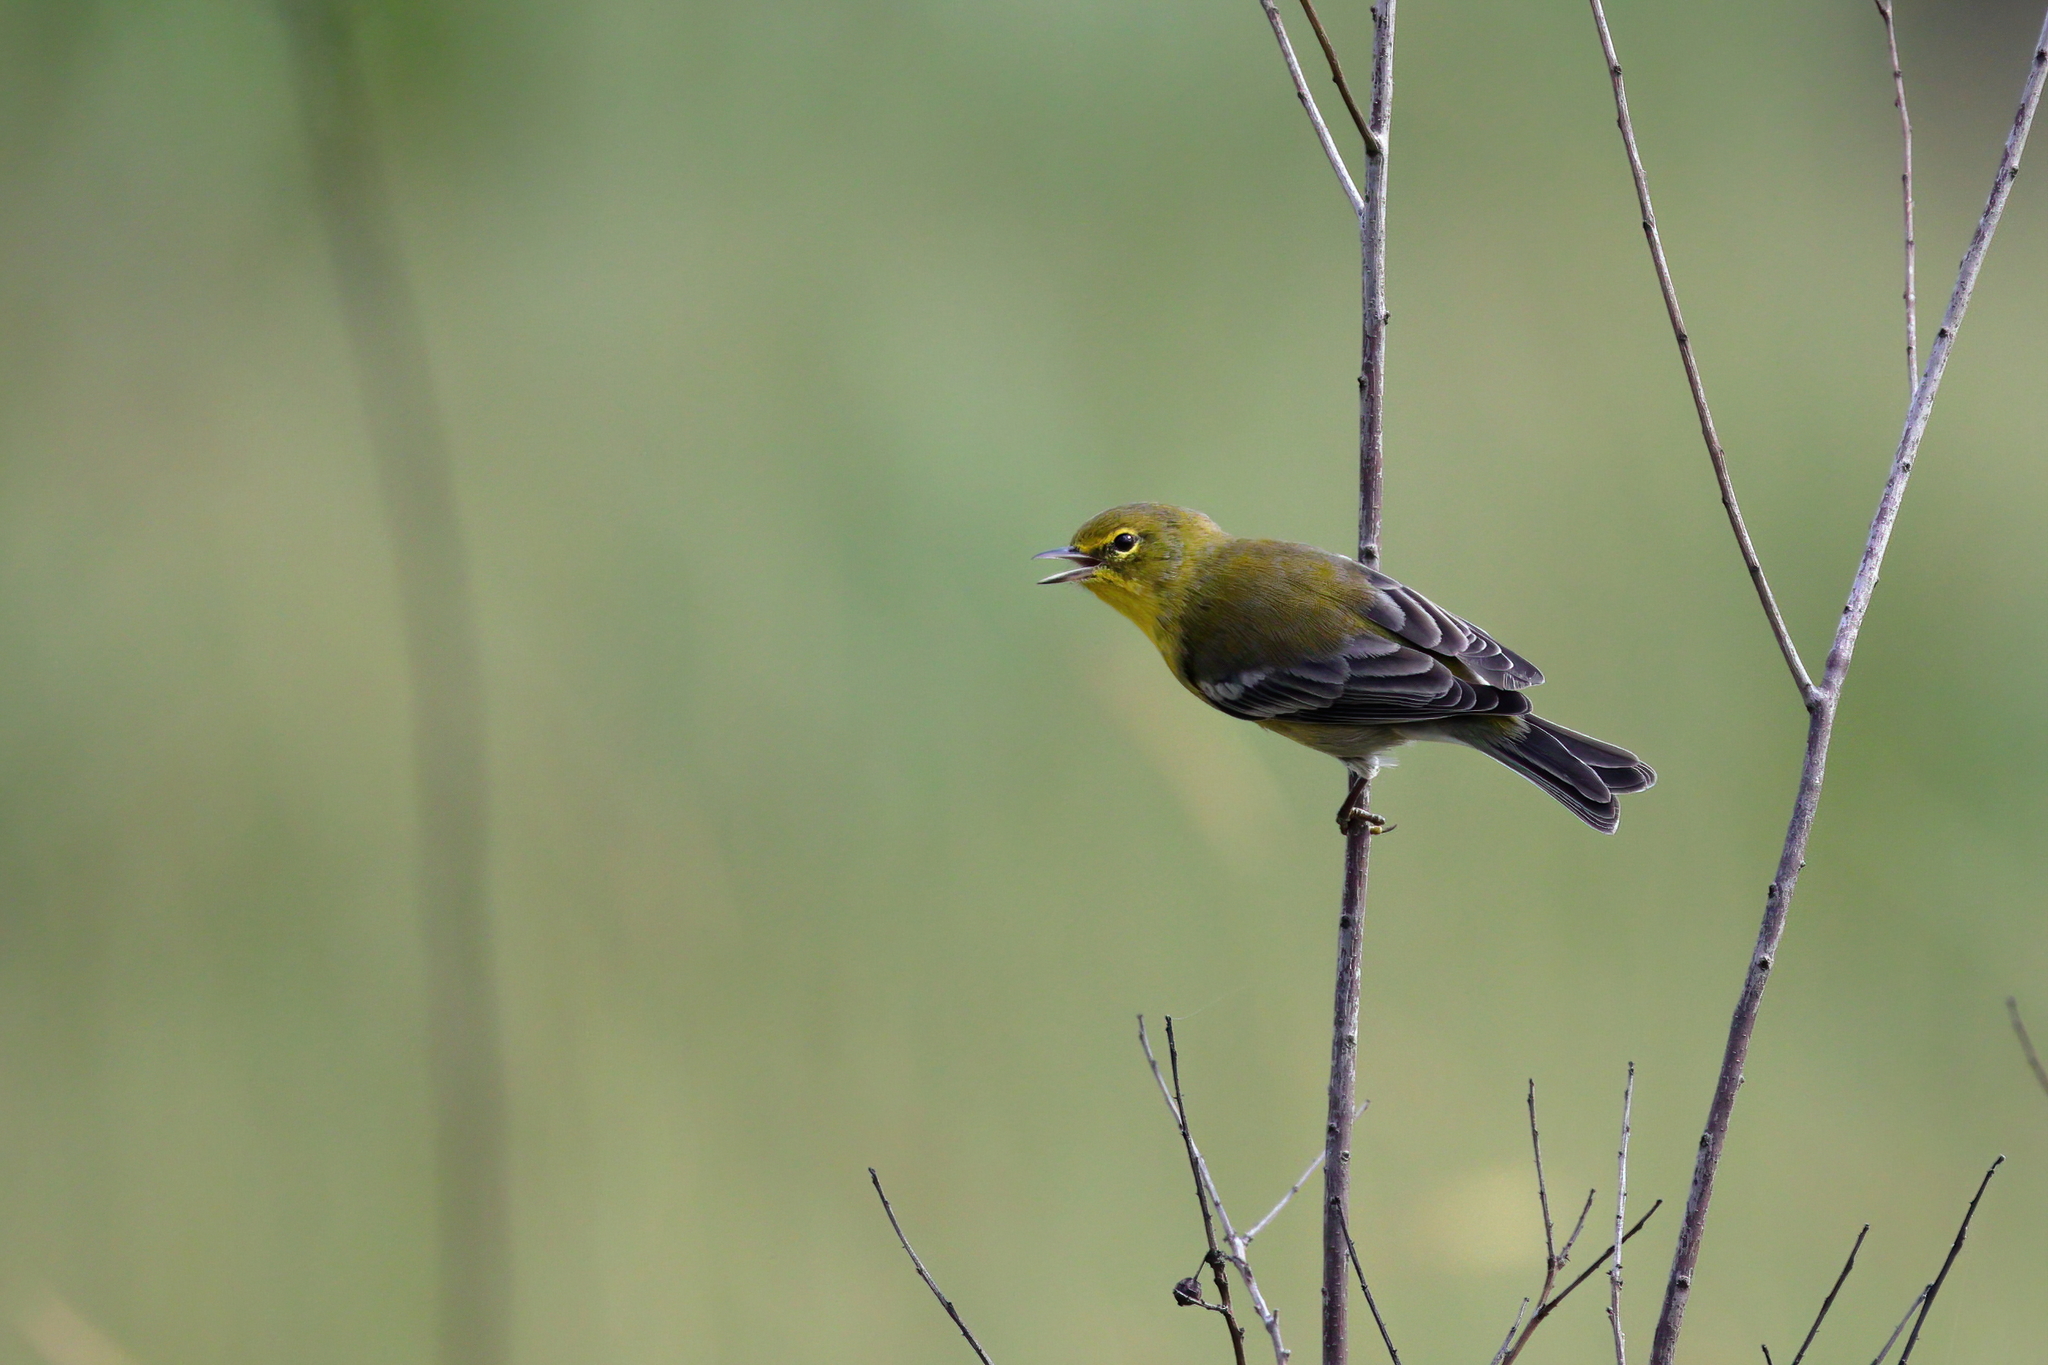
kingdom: Animalia
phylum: Chordata
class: Aves
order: Passeriformes
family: Parulidae
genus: Setophaga
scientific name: Setophaga pinus
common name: Pine warbler
